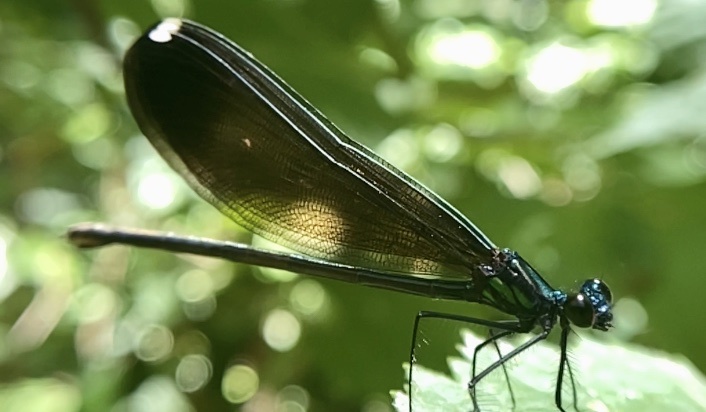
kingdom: Animalia
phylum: Arthropoda
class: Insecta
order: Odonata
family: Calopterygidae
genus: Calopteryx
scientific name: Calopteryx maculata
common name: Ebony jewelwing
